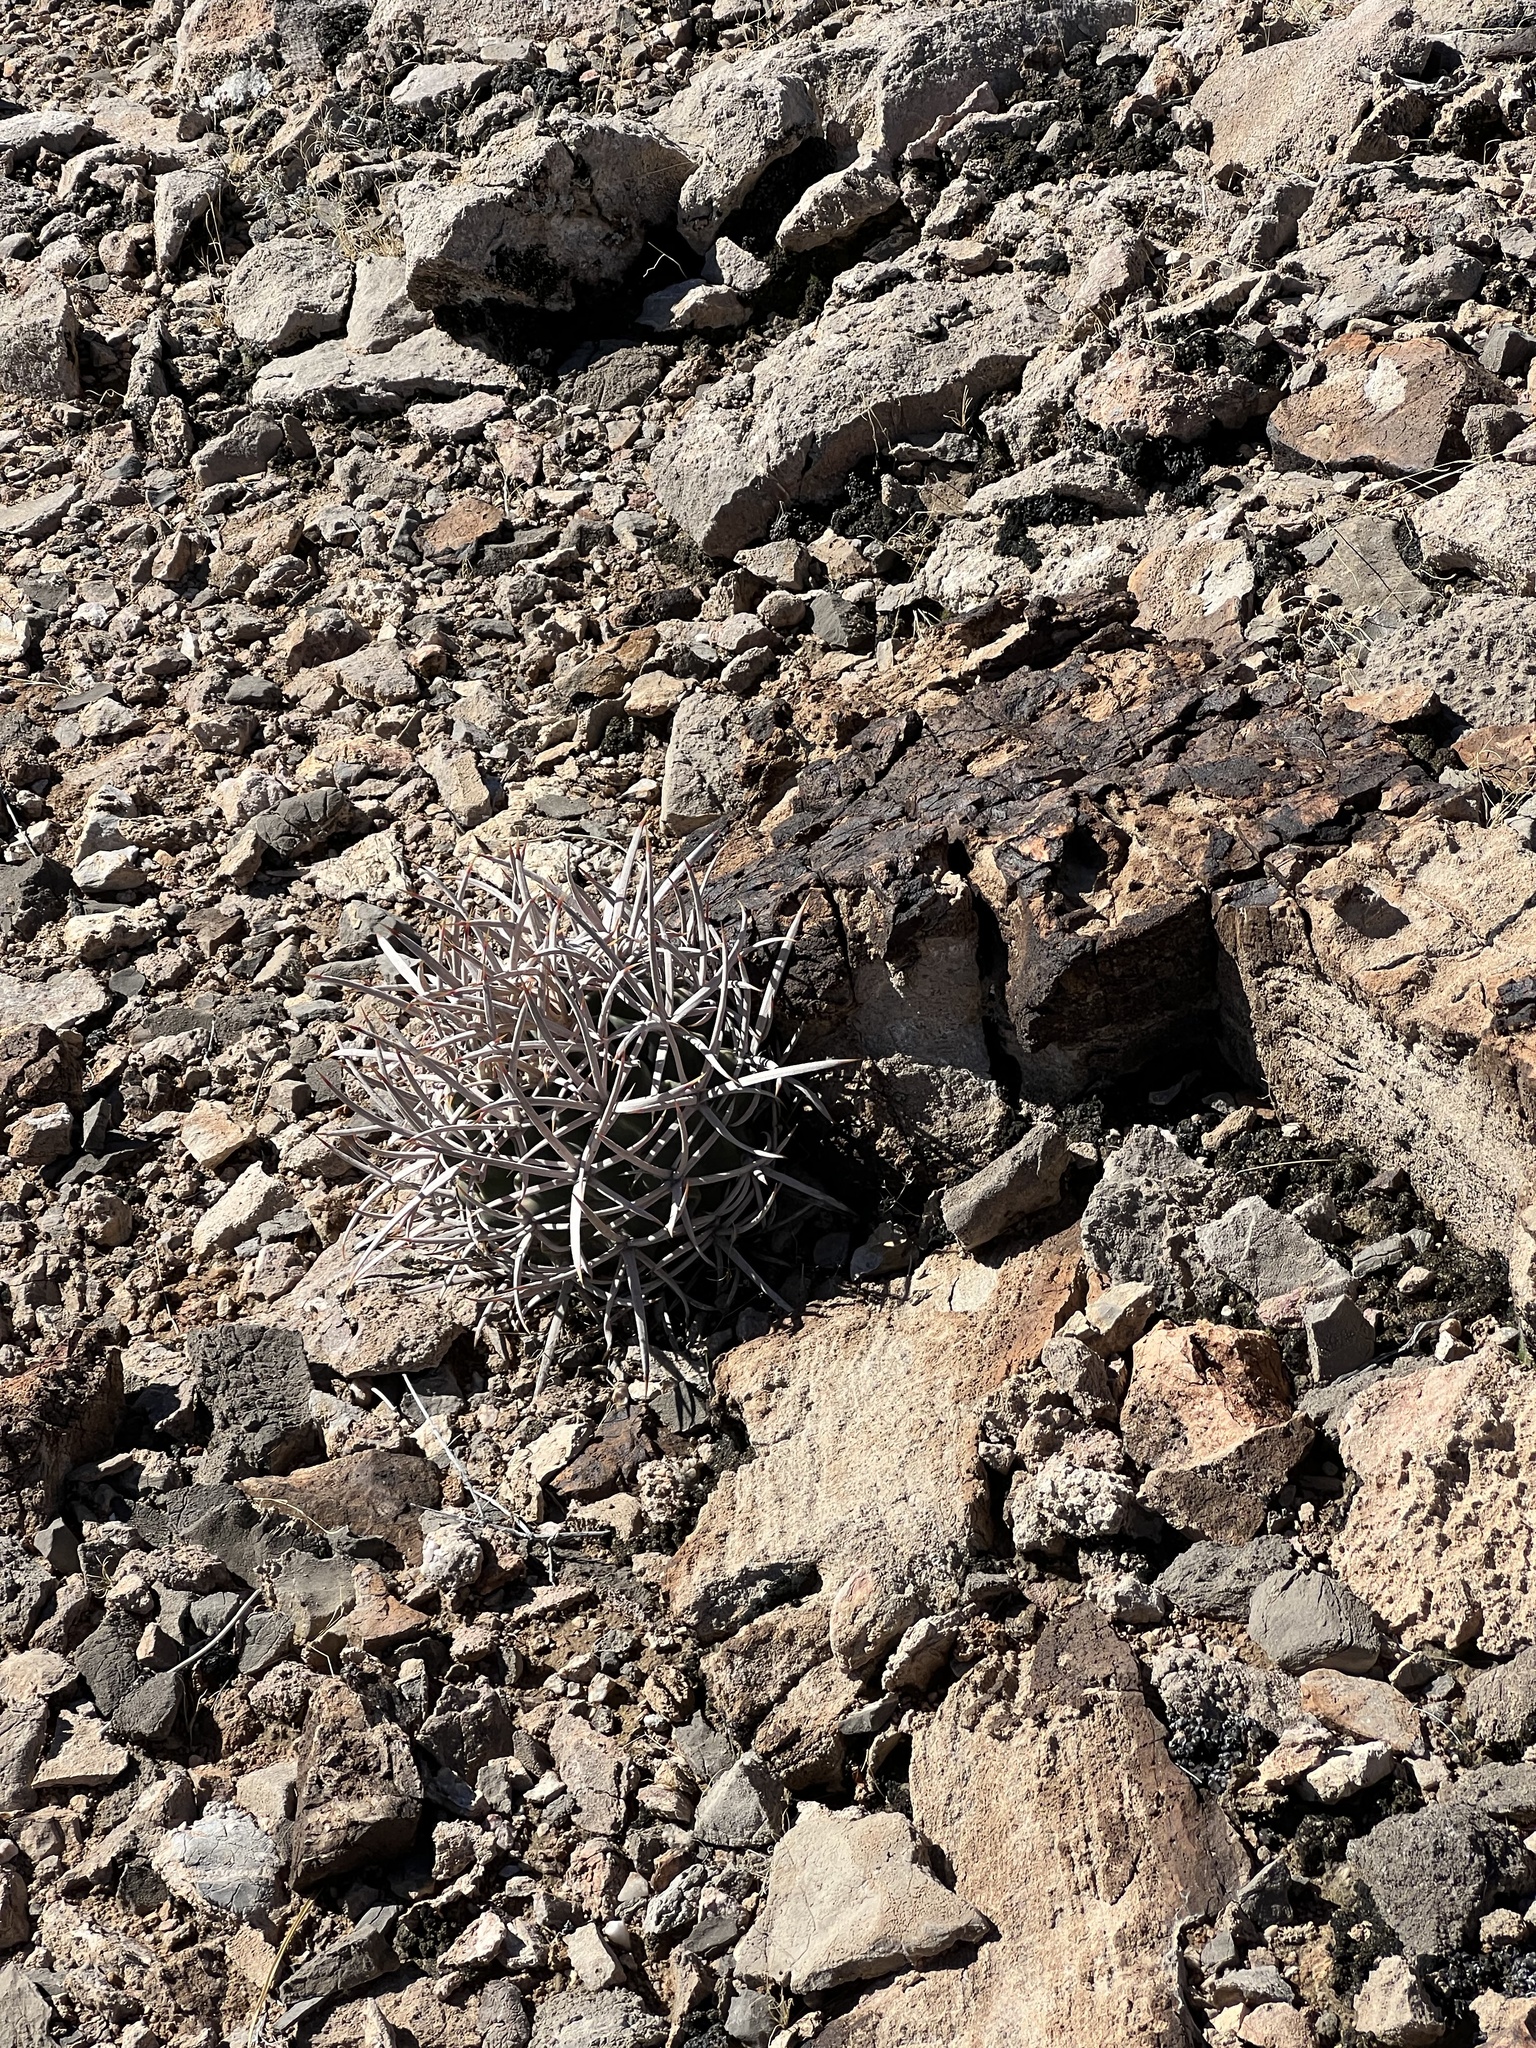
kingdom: Plantae
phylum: Tracheophyta
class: Magnoliopsida
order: Caryophyllales
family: Cactaceae
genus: Echinocactus
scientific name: Echinocactus polycephalus
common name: Cottontop cactus
